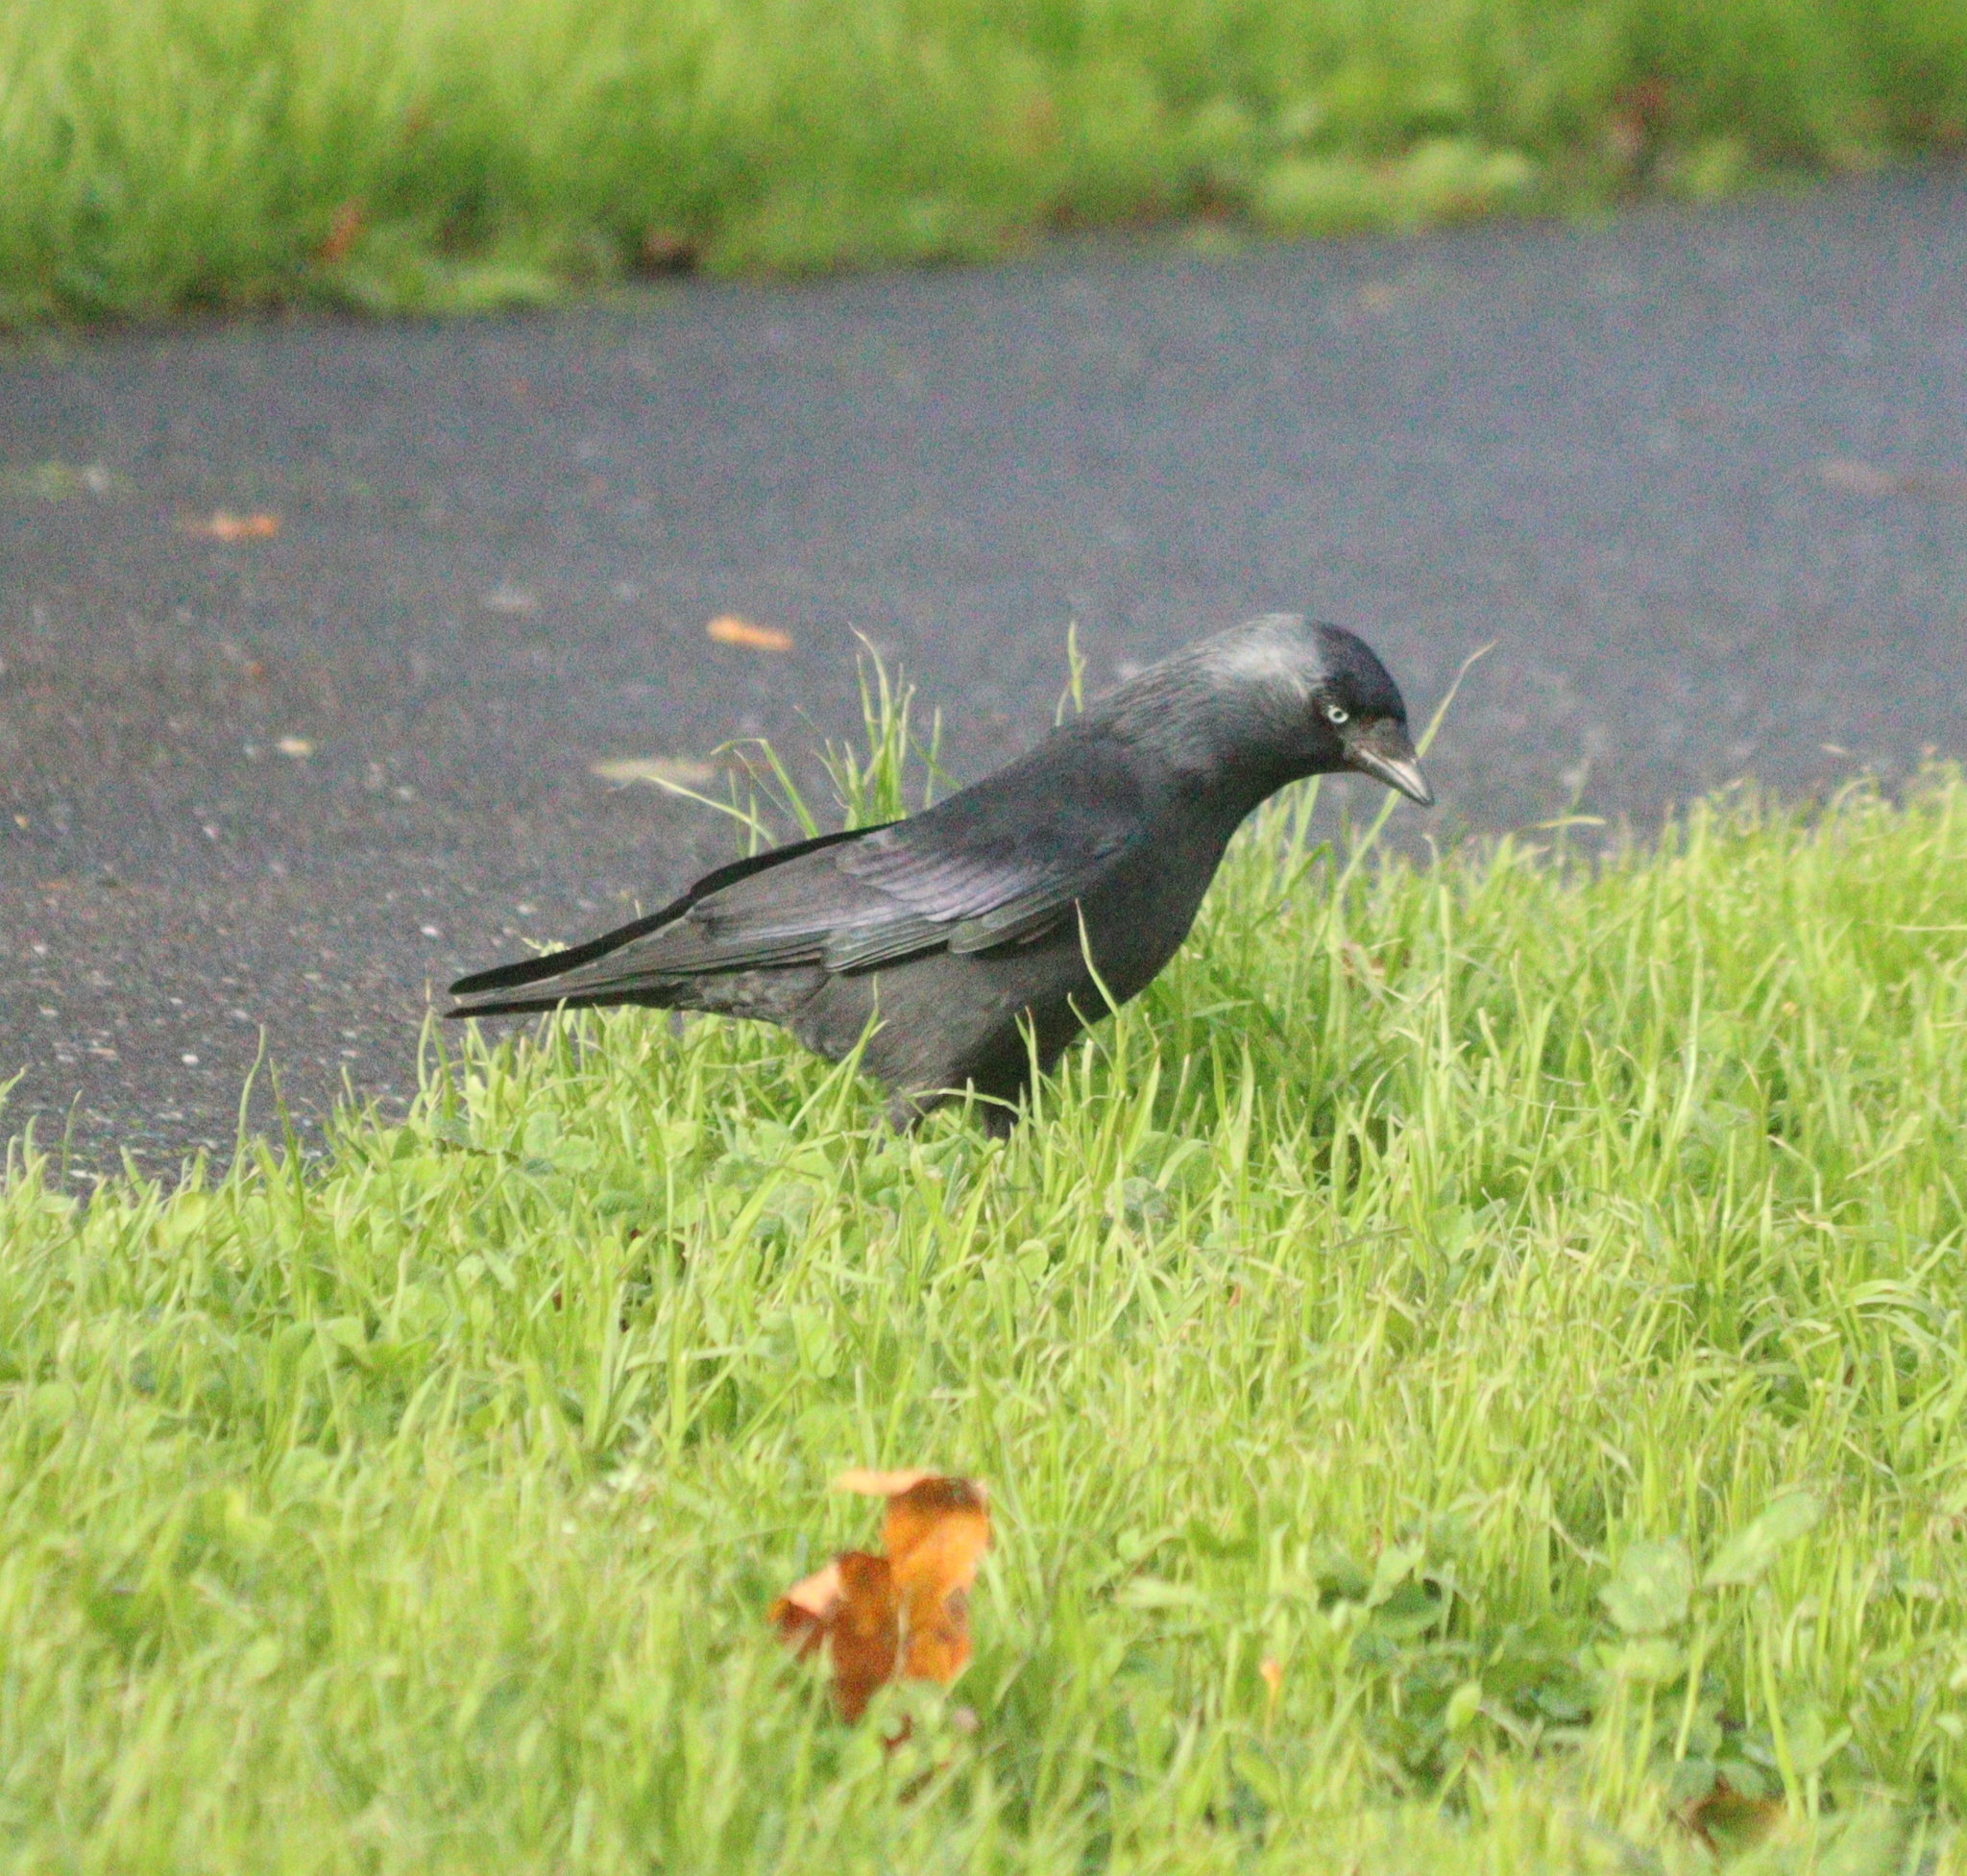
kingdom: Animalia
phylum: Chordata
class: Aves
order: Passeriformes
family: Corvidae
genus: Coloeus
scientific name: Coloeus monedula
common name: Western jackdaw
